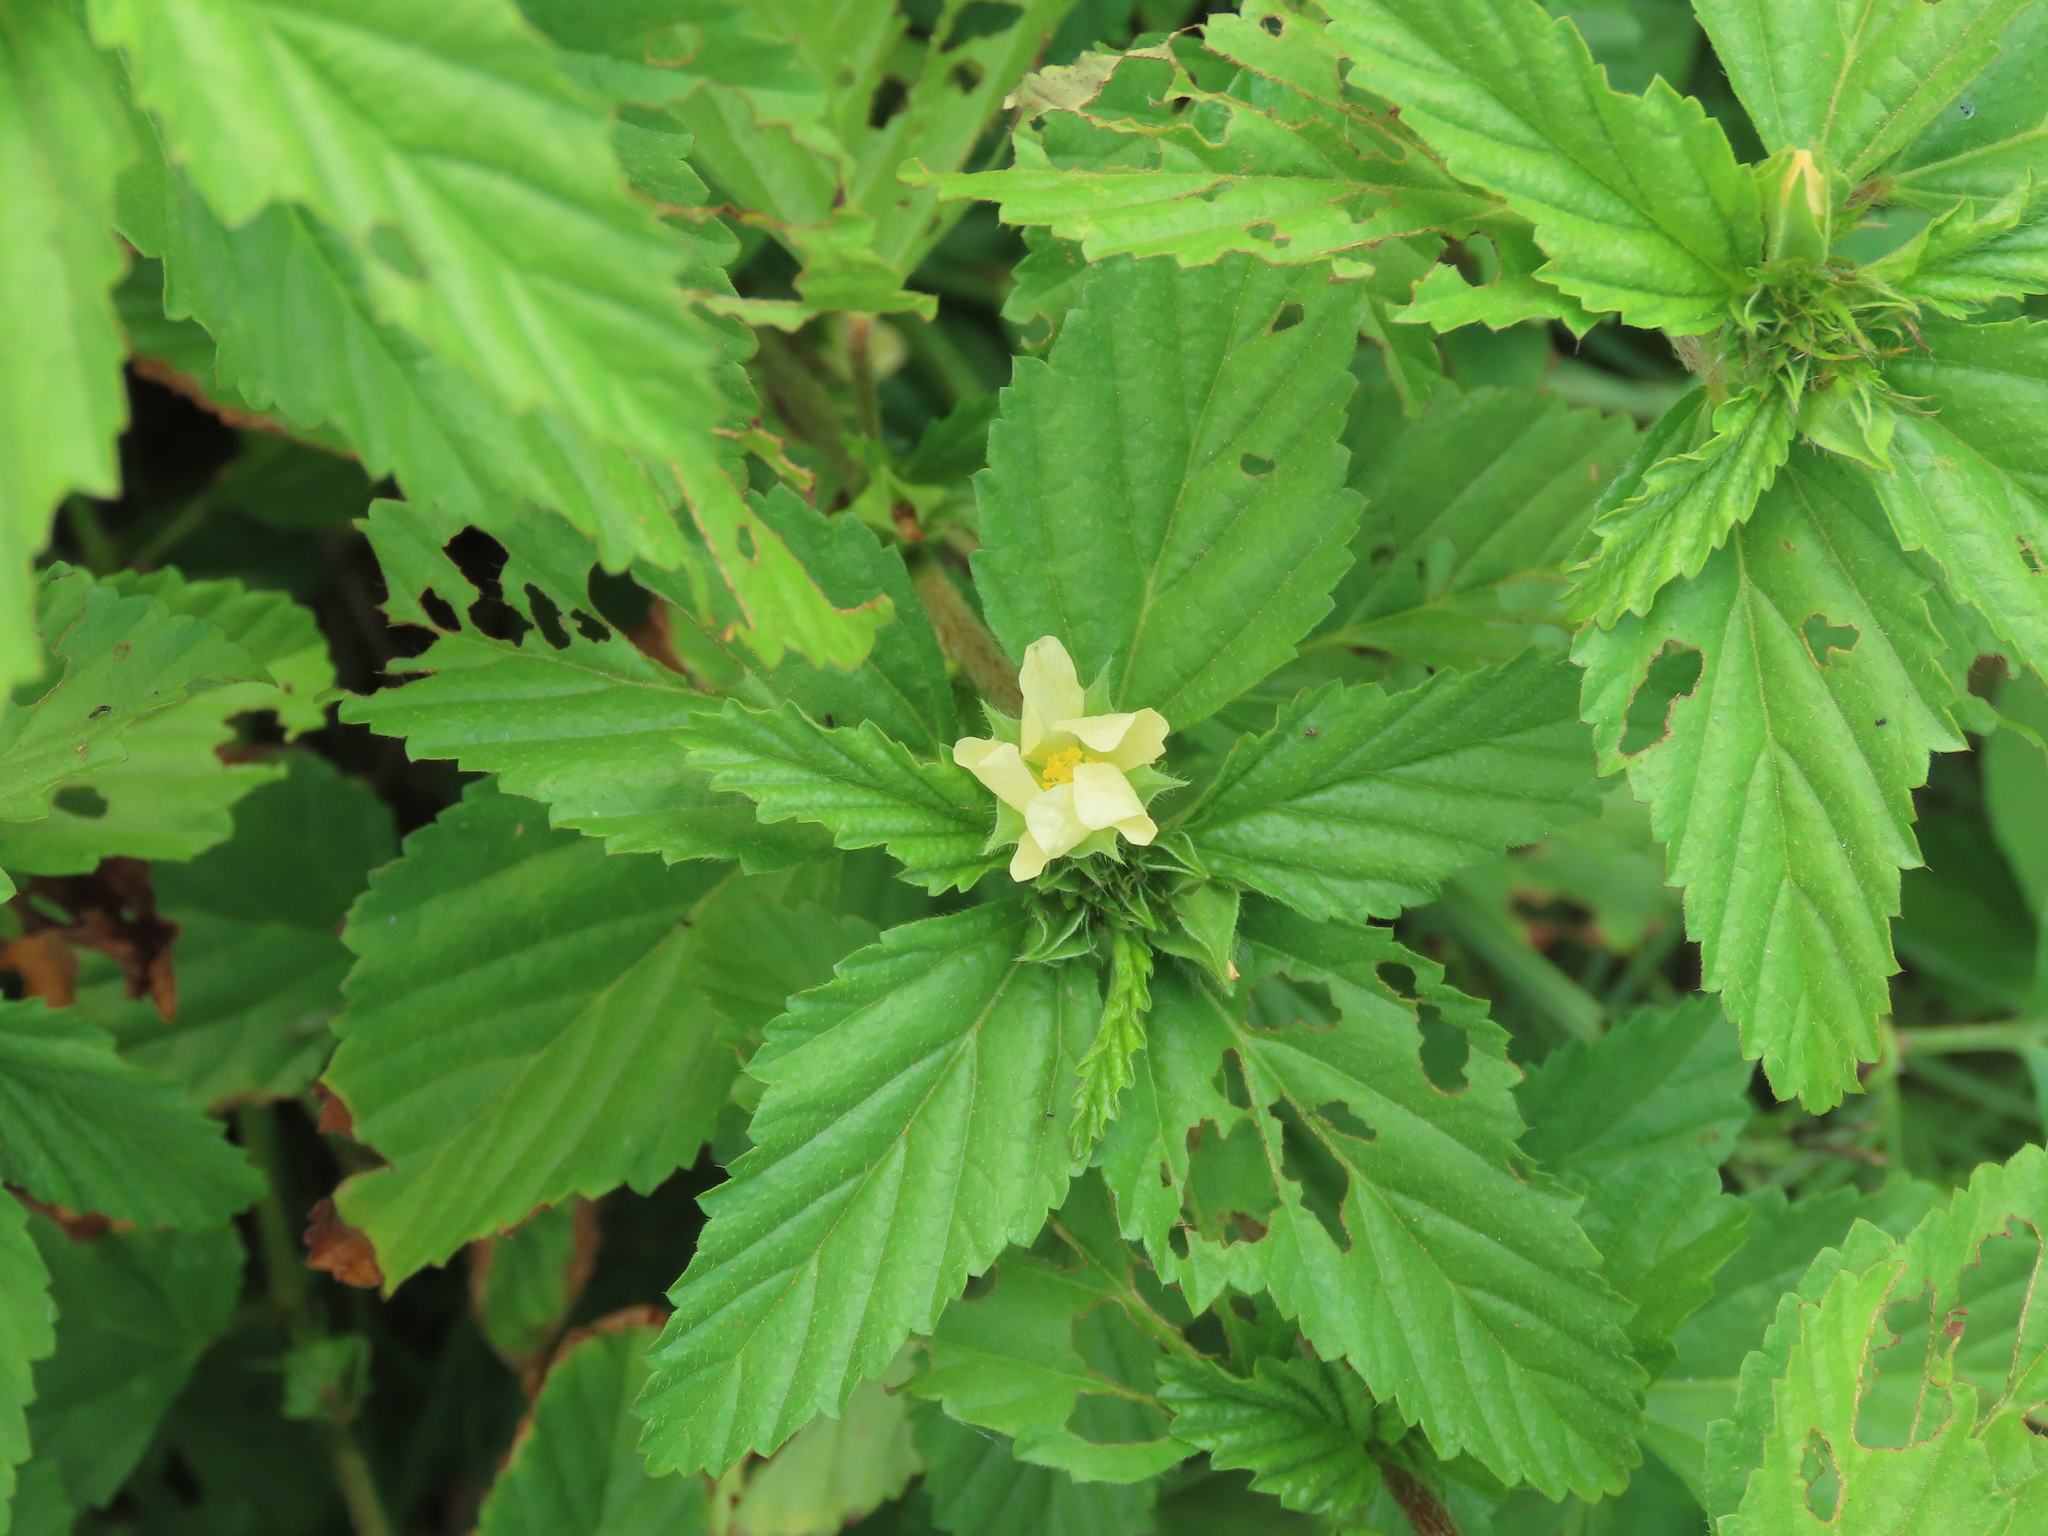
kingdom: Plantae
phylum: Tracheophyta
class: Magnoliopsida
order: Malvales
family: Malvaceae
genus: Malvastrum
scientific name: Malvastrum coromandelianum
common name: Threelobe false mallow
